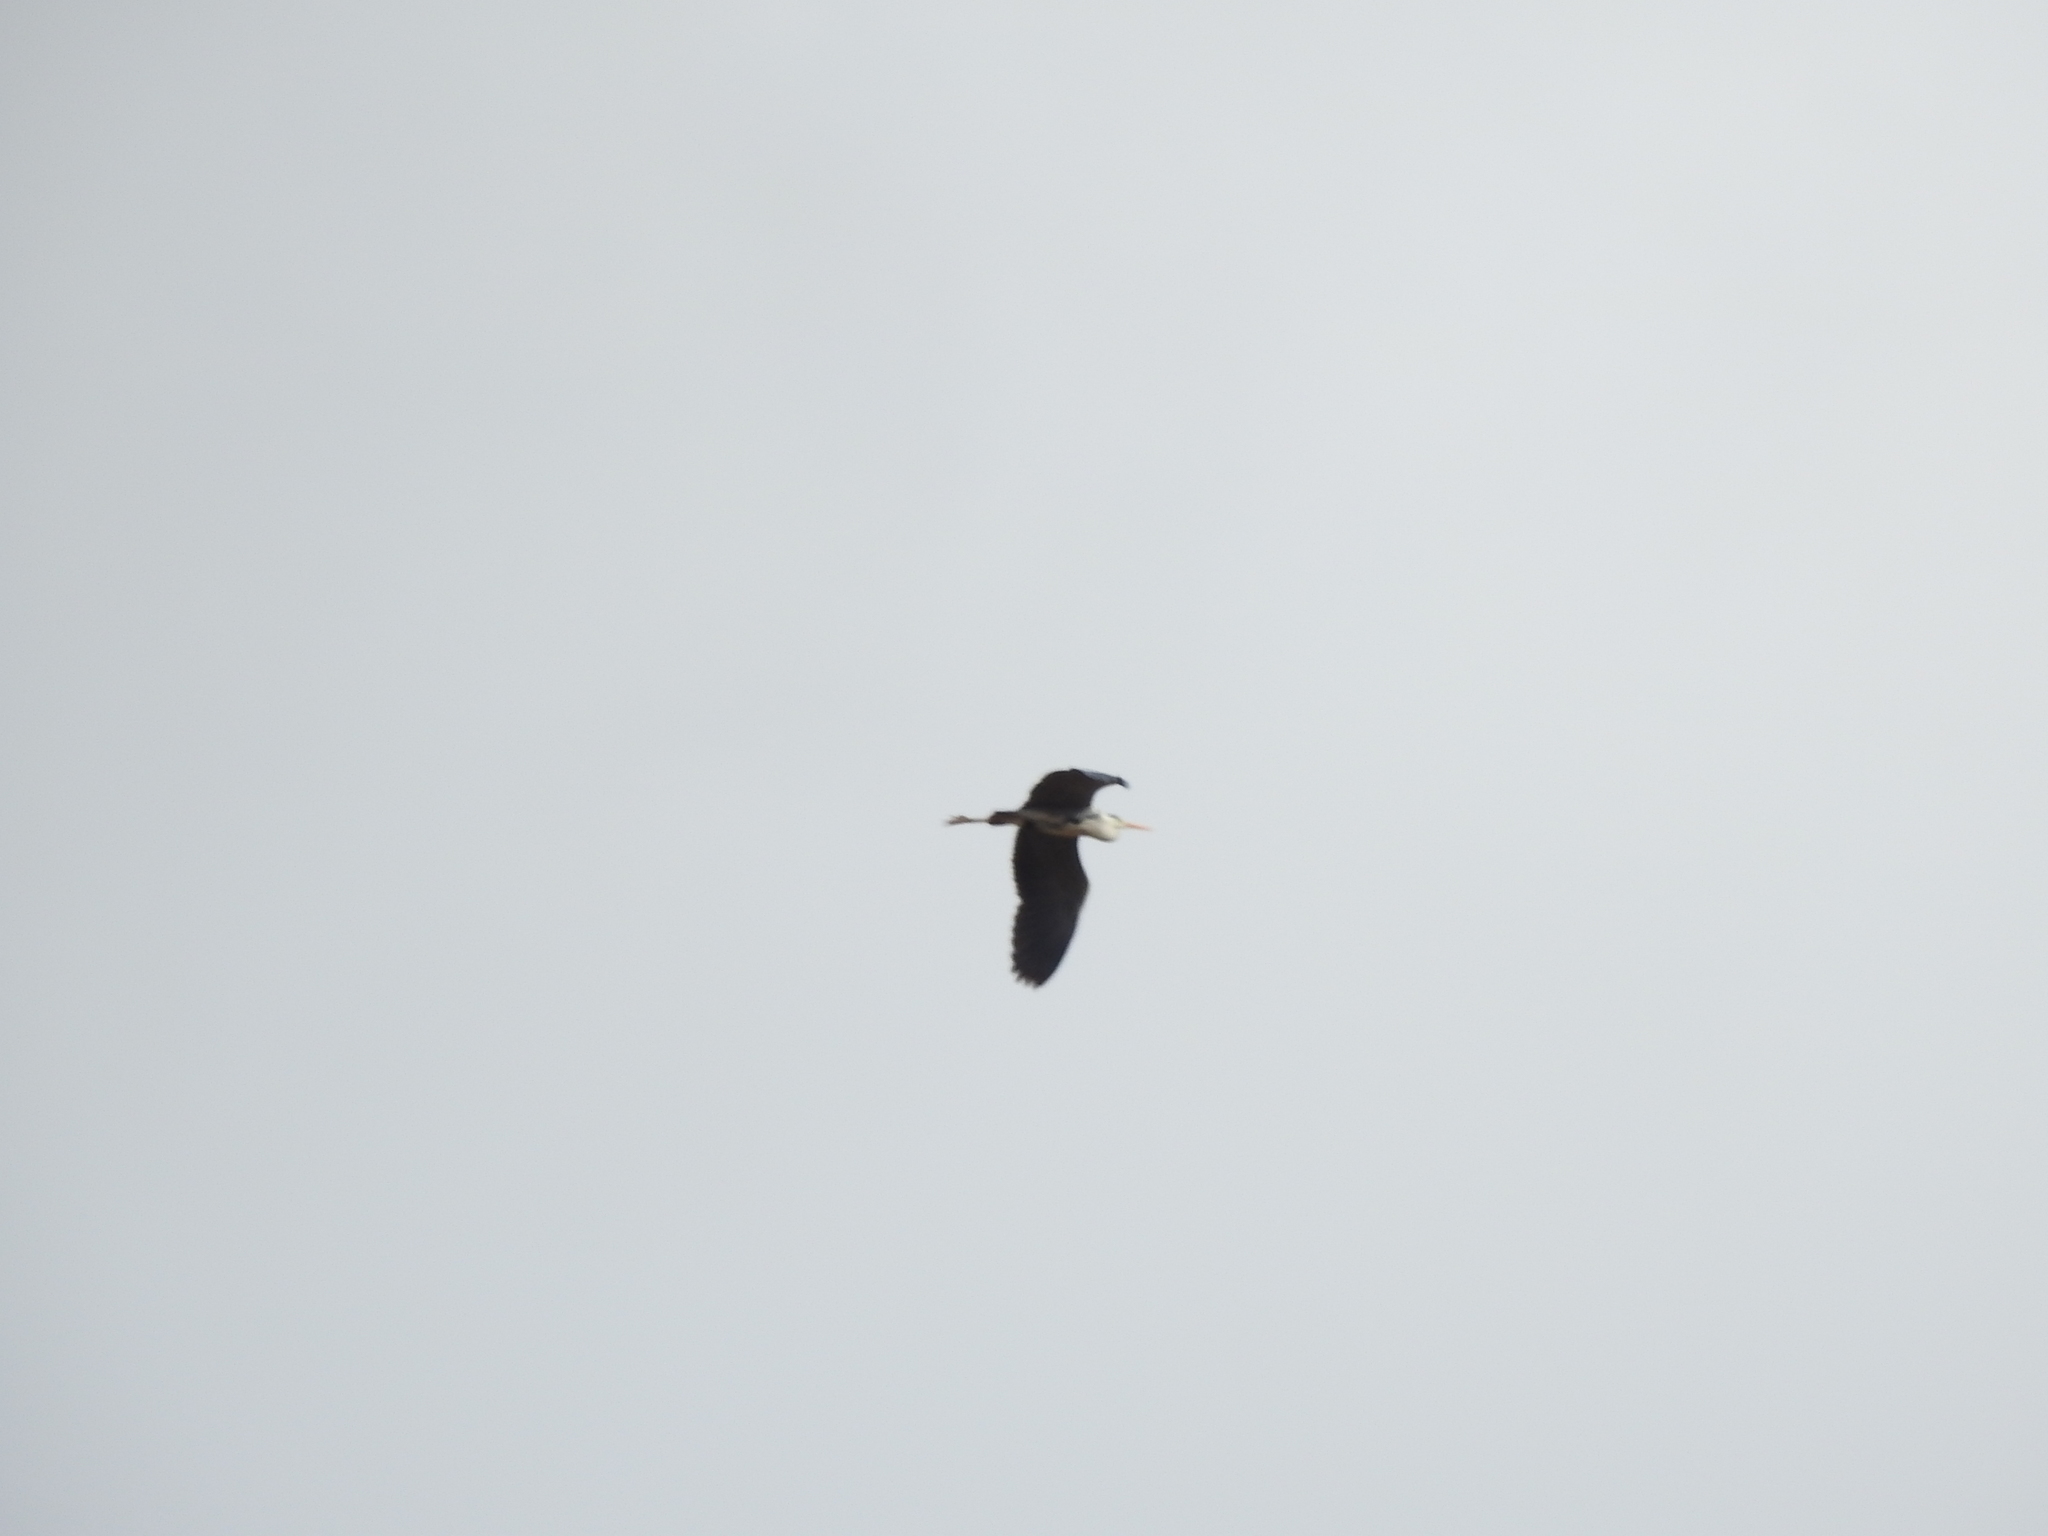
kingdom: Animalia
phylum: Chordata
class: Aves
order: Pelecaniformes
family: Ardeidae
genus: Ardea
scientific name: Ardea cinerea
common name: Grey heron
